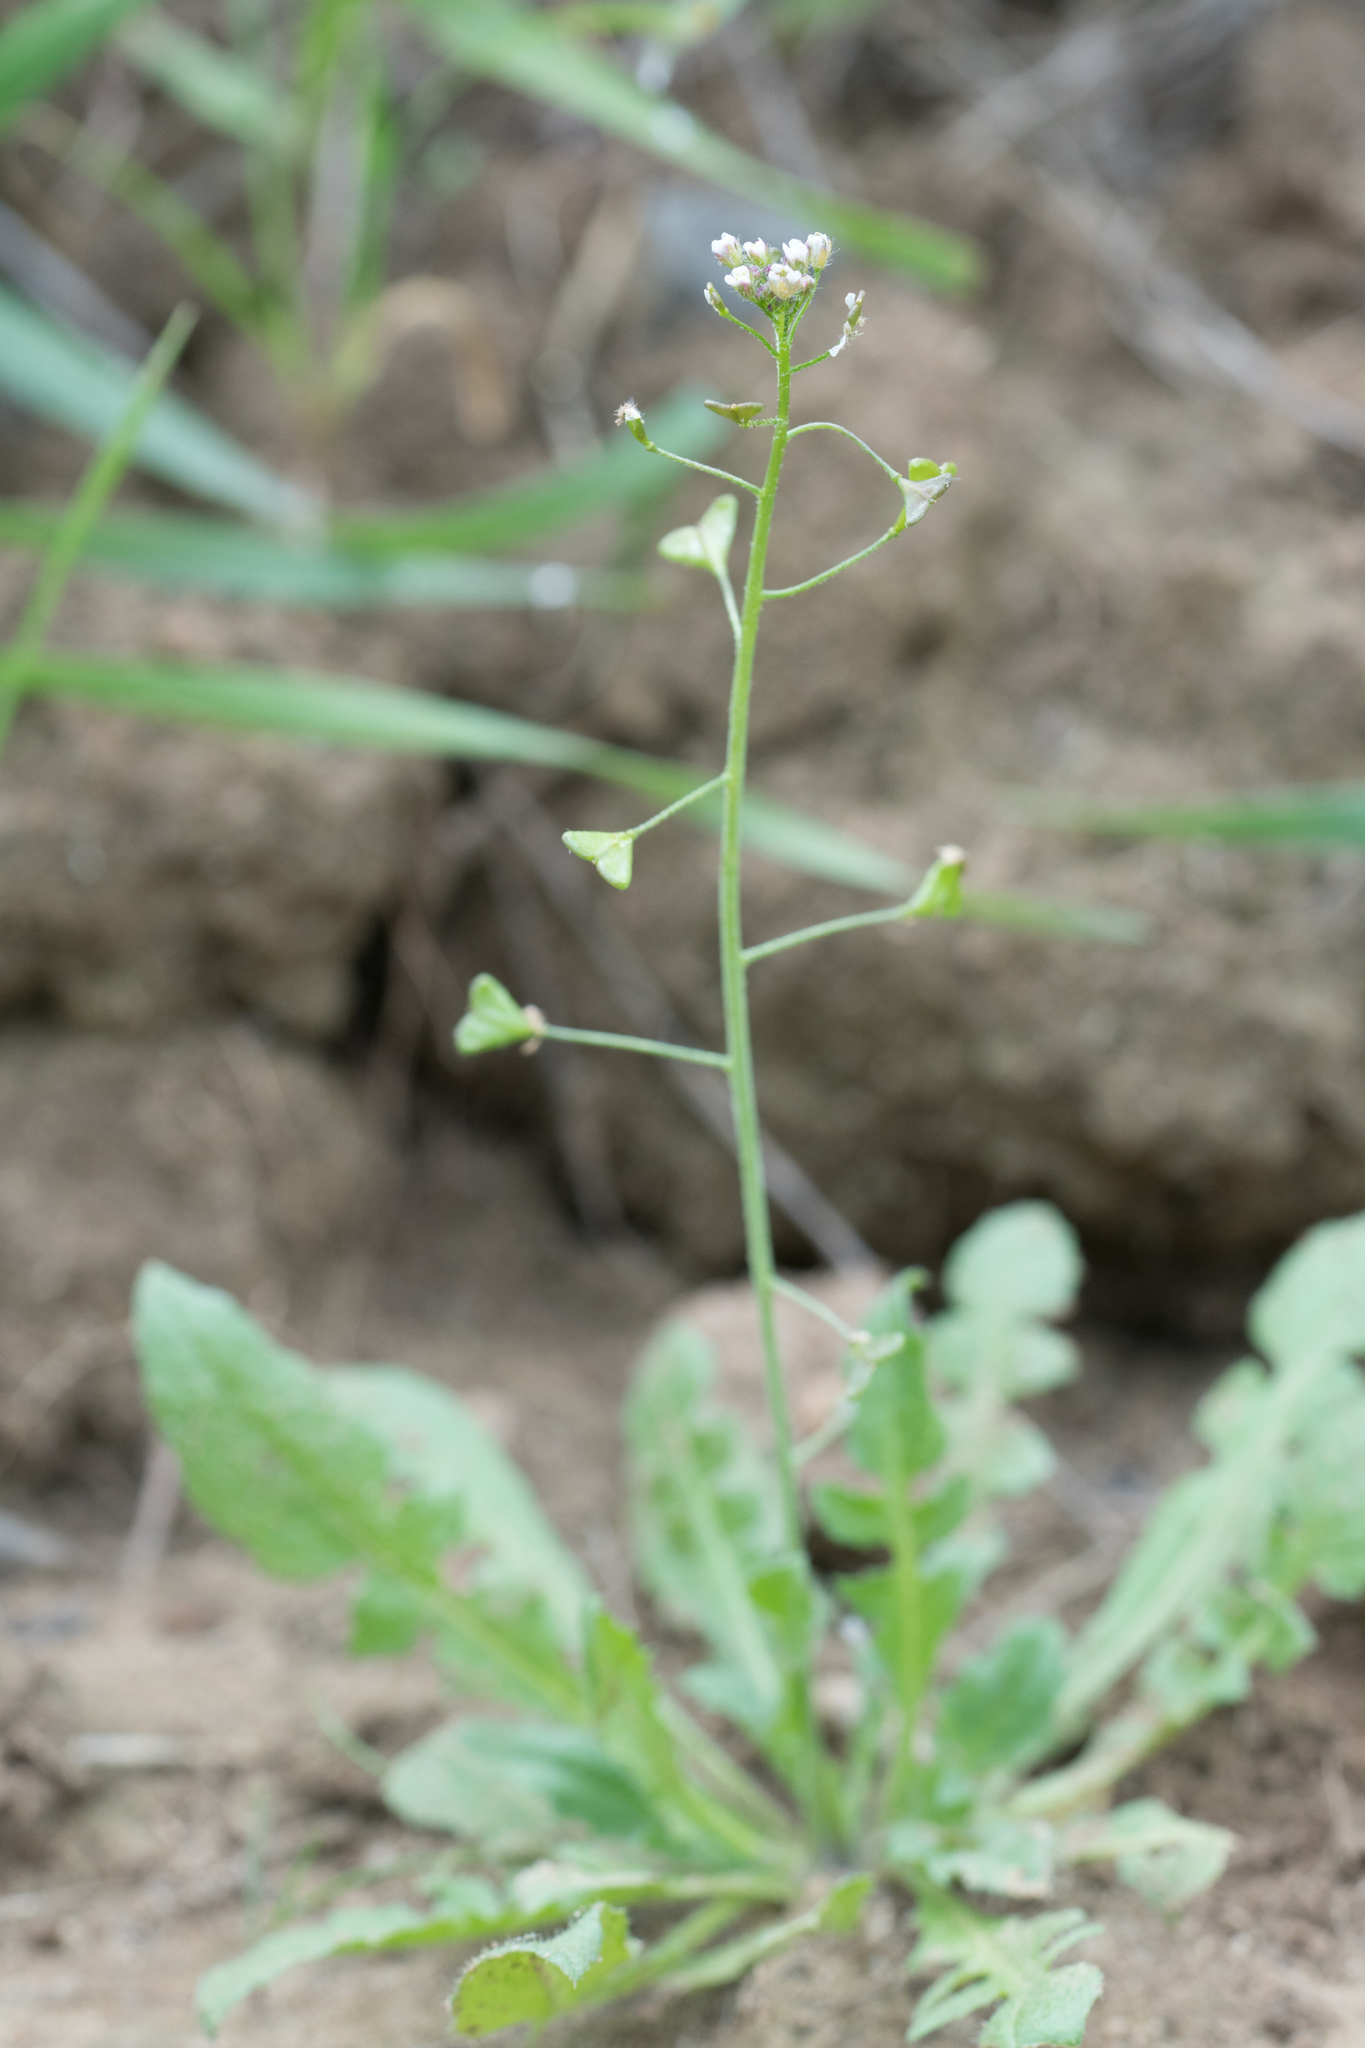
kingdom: Plantae
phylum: Tracheophyta
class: Magnoliopsida
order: Brassicales
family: Brassicaceae
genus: Capsella
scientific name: Capsella bursa-pastoris
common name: Shepherd's purse
